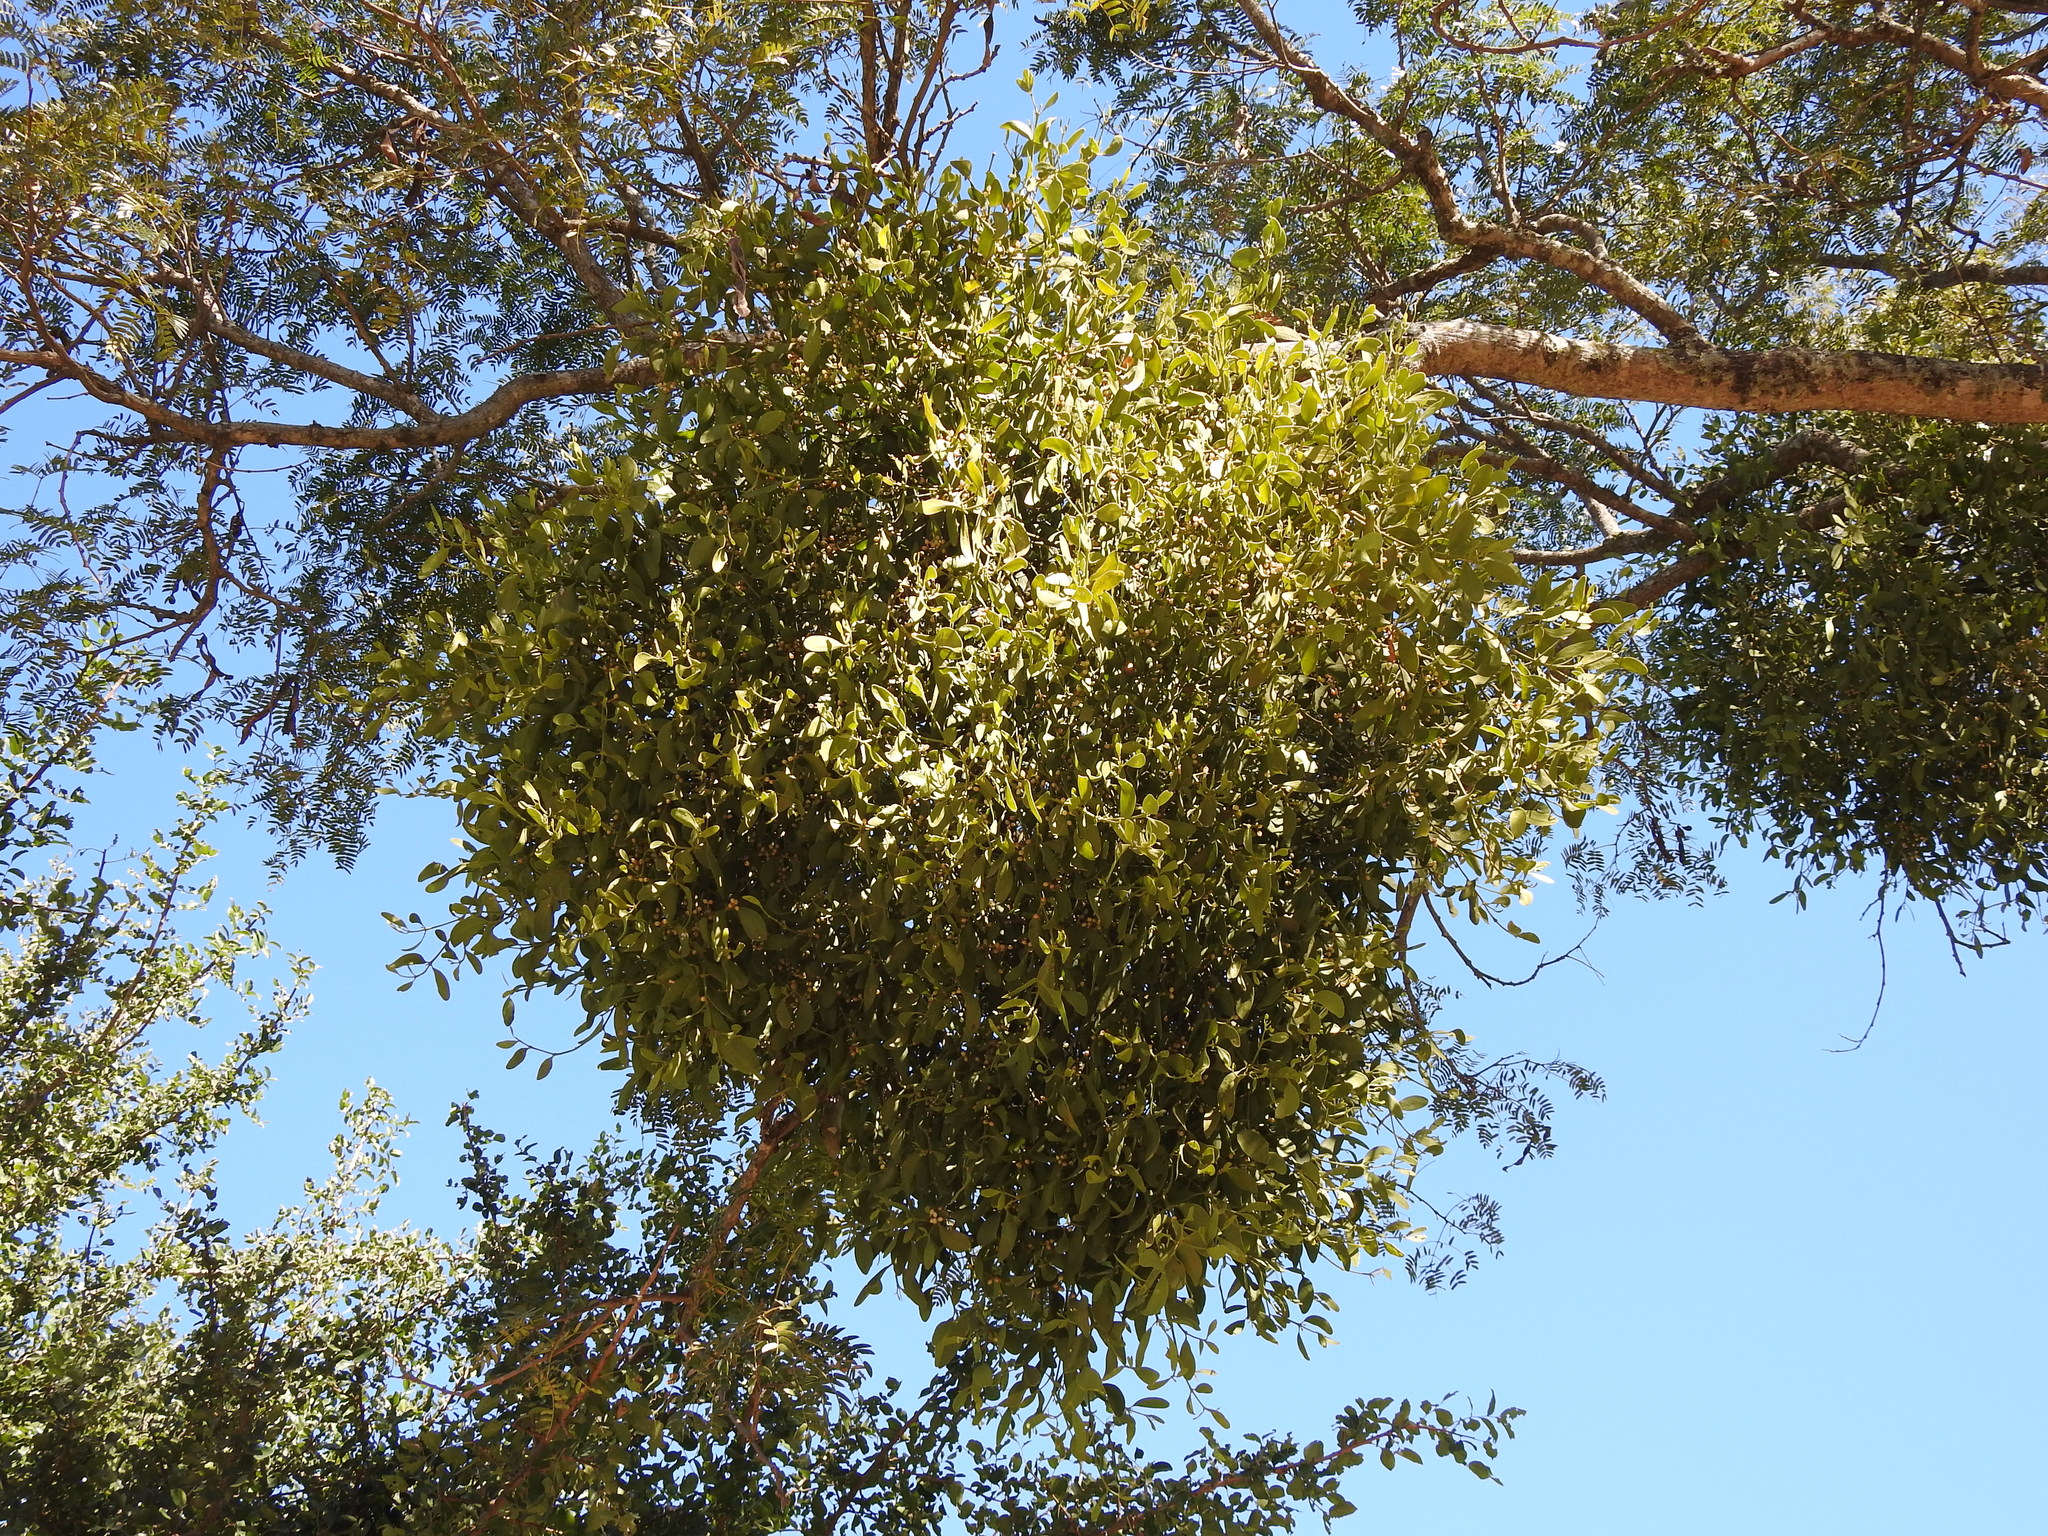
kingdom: Plantae
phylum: Tracheophyta
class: Magnoliopsida
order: Santalales
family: Viscaceae
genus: Phoradendron
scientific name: Phoradendron quadrangulare
